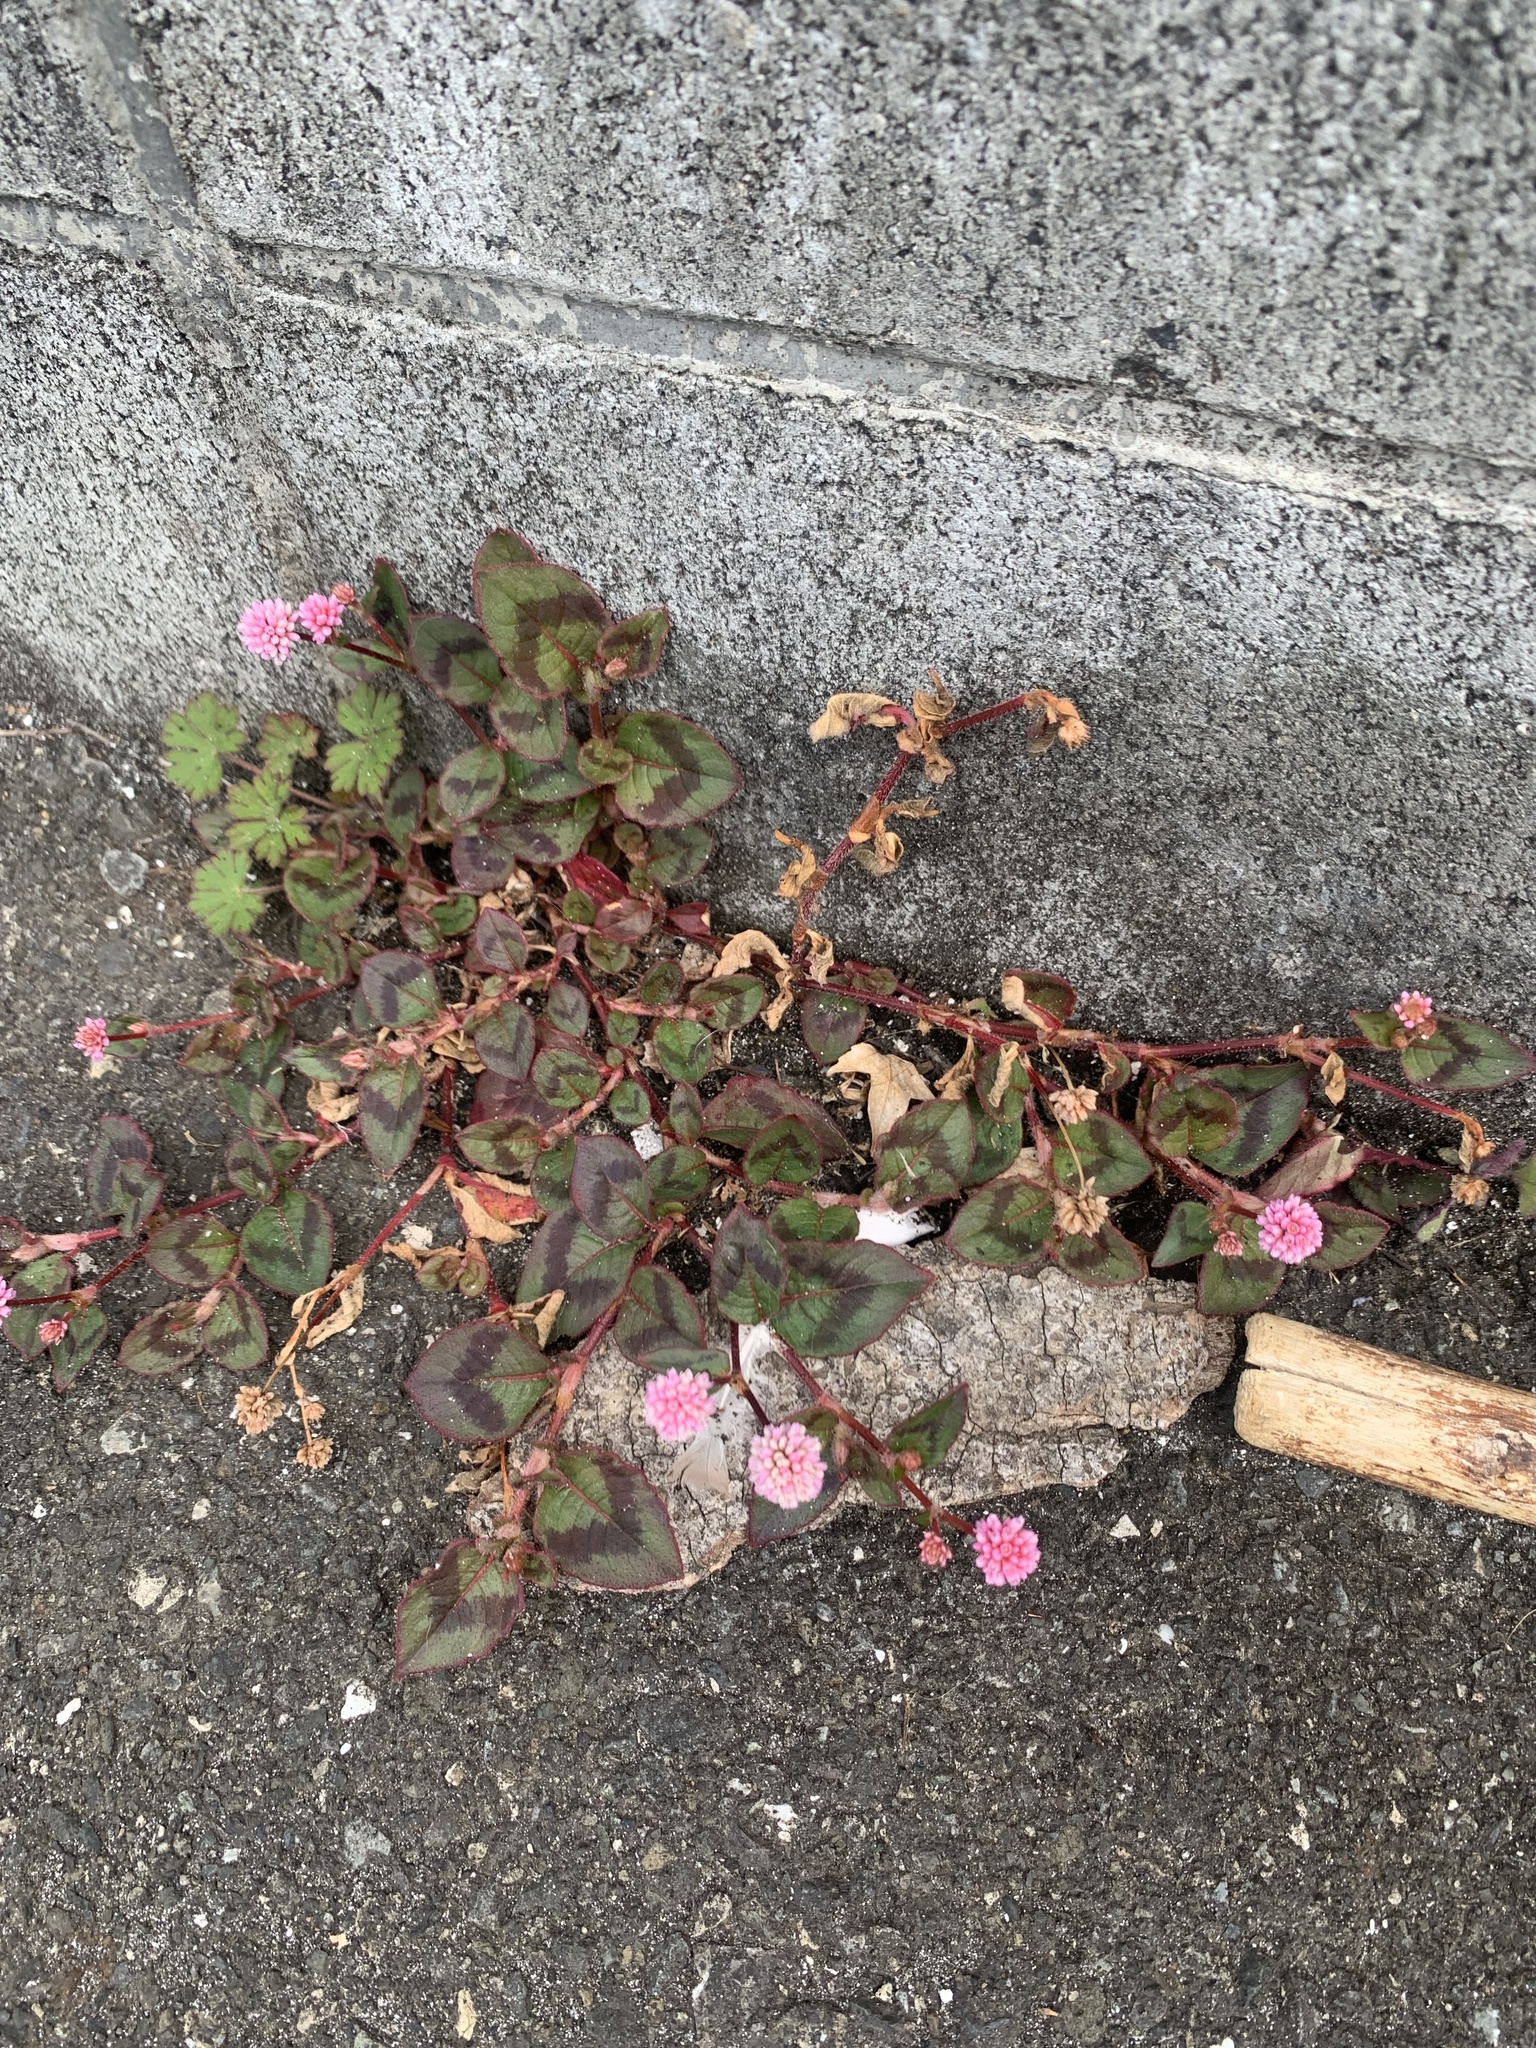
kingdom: Plantae
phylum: Tracheophyta
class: Magnoliopsida
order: Caryophyllales
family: Polygonaceae
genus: Persicaria
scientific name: Persicaria capitata
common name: Pinkhead smartweed
